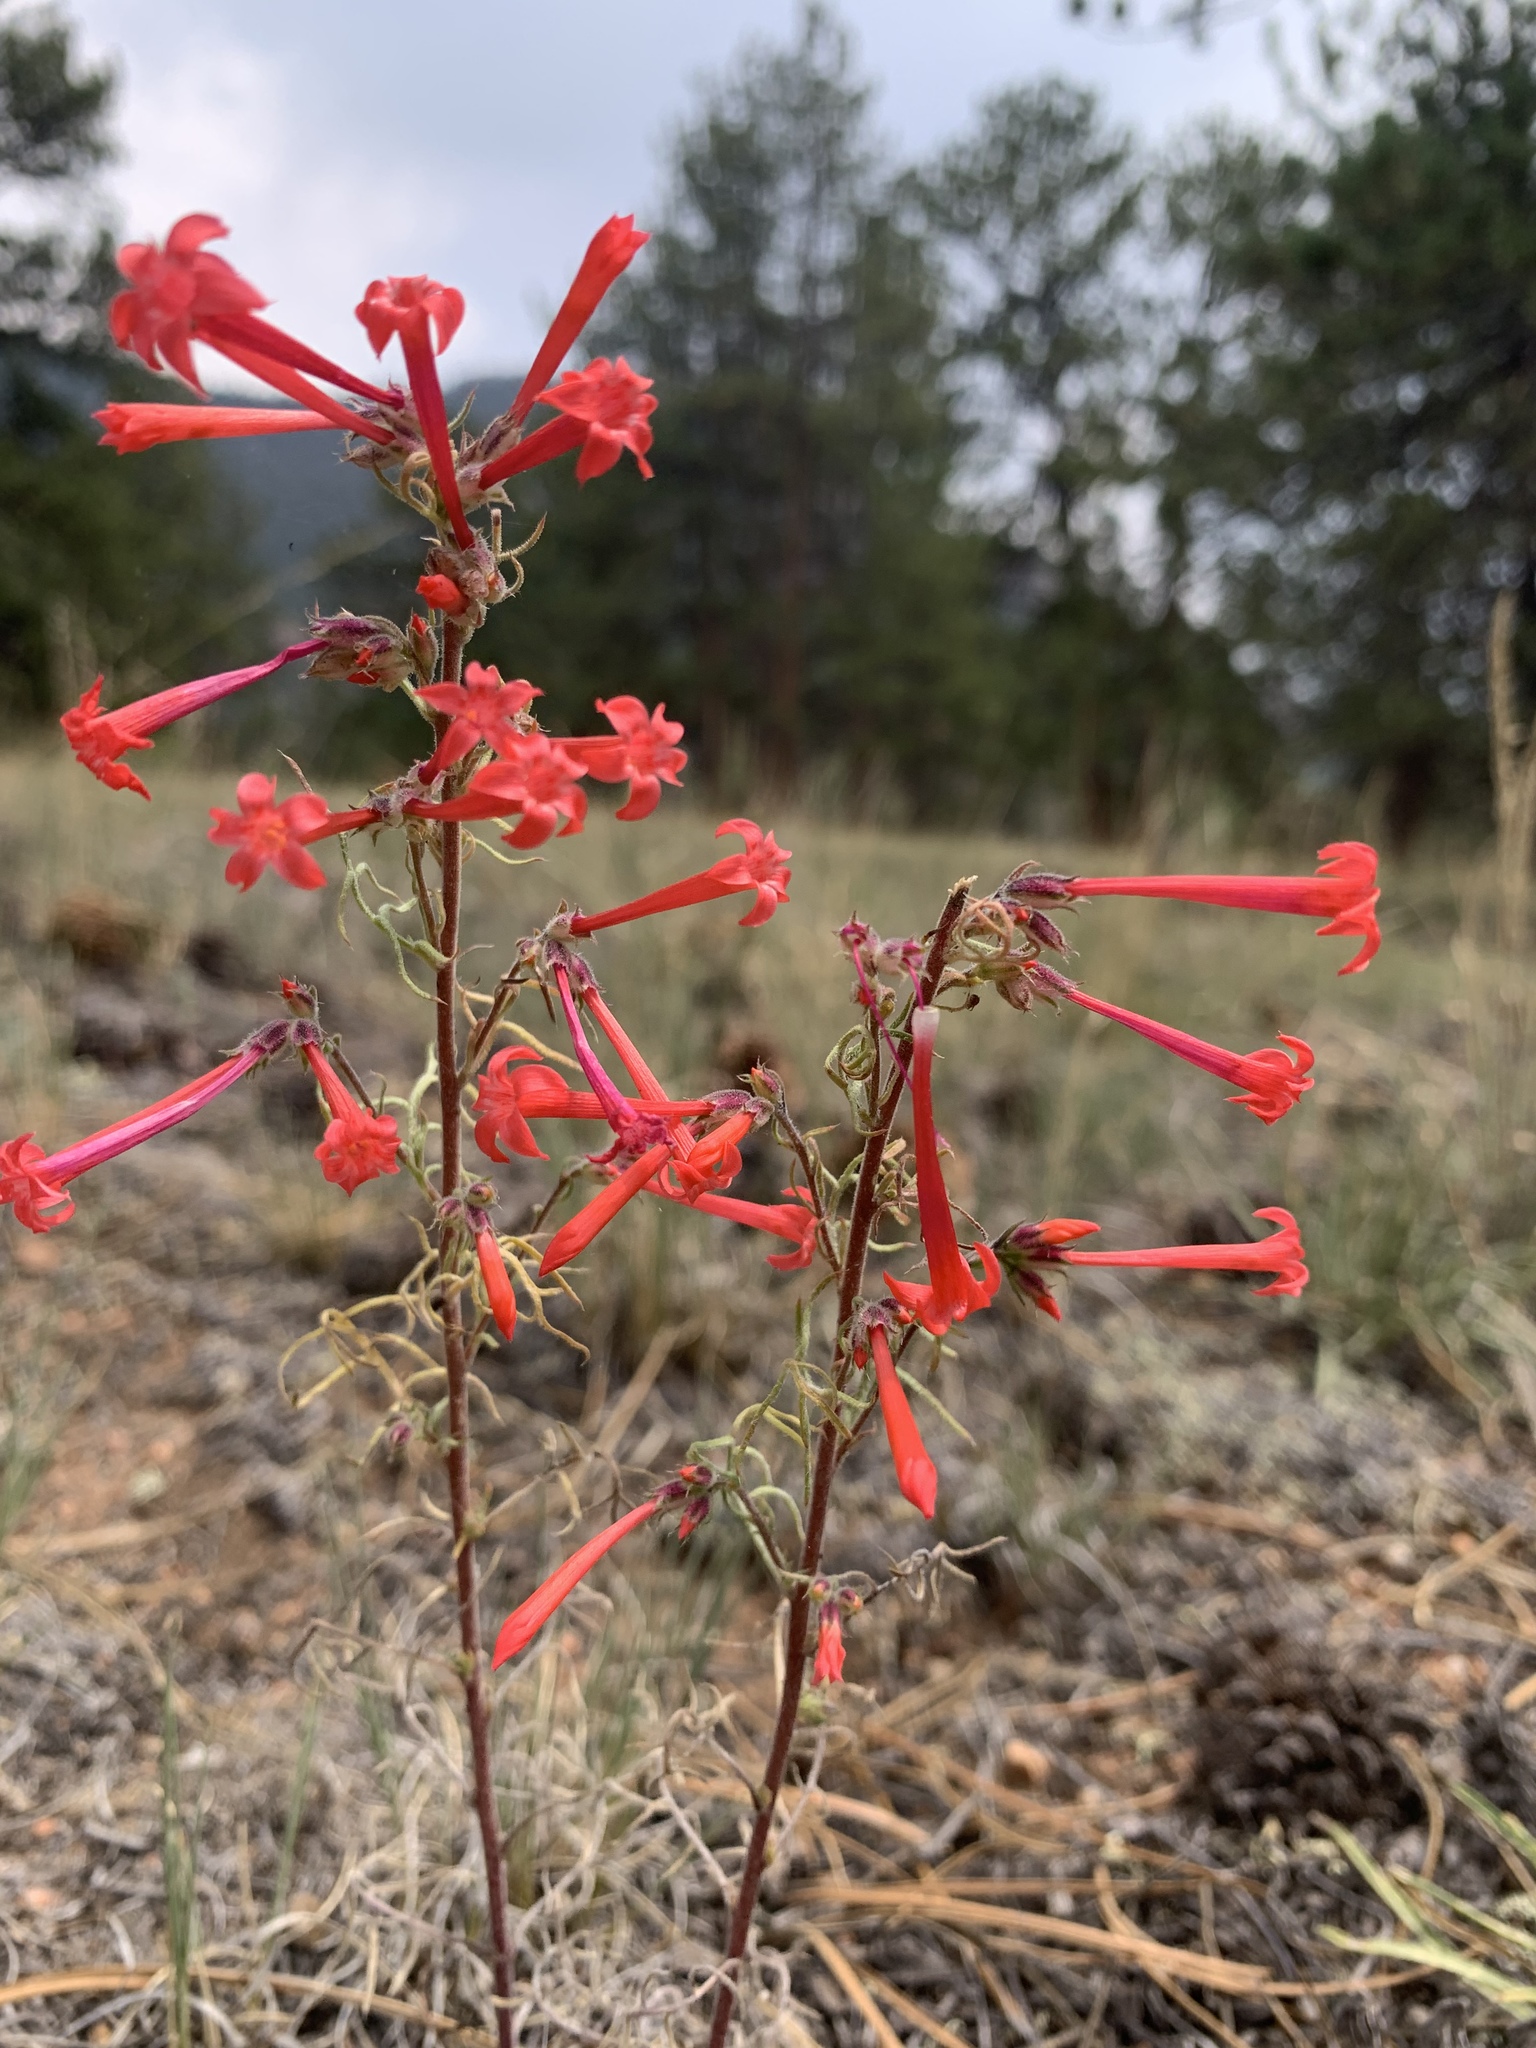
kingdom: Plantae
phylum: Tracheophyta
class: Magnoliopsida
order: Ericales
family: Polemoniaceae
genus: Ipomopsis
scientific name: Ipomopsis aggregata
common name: Scarlet gilia
